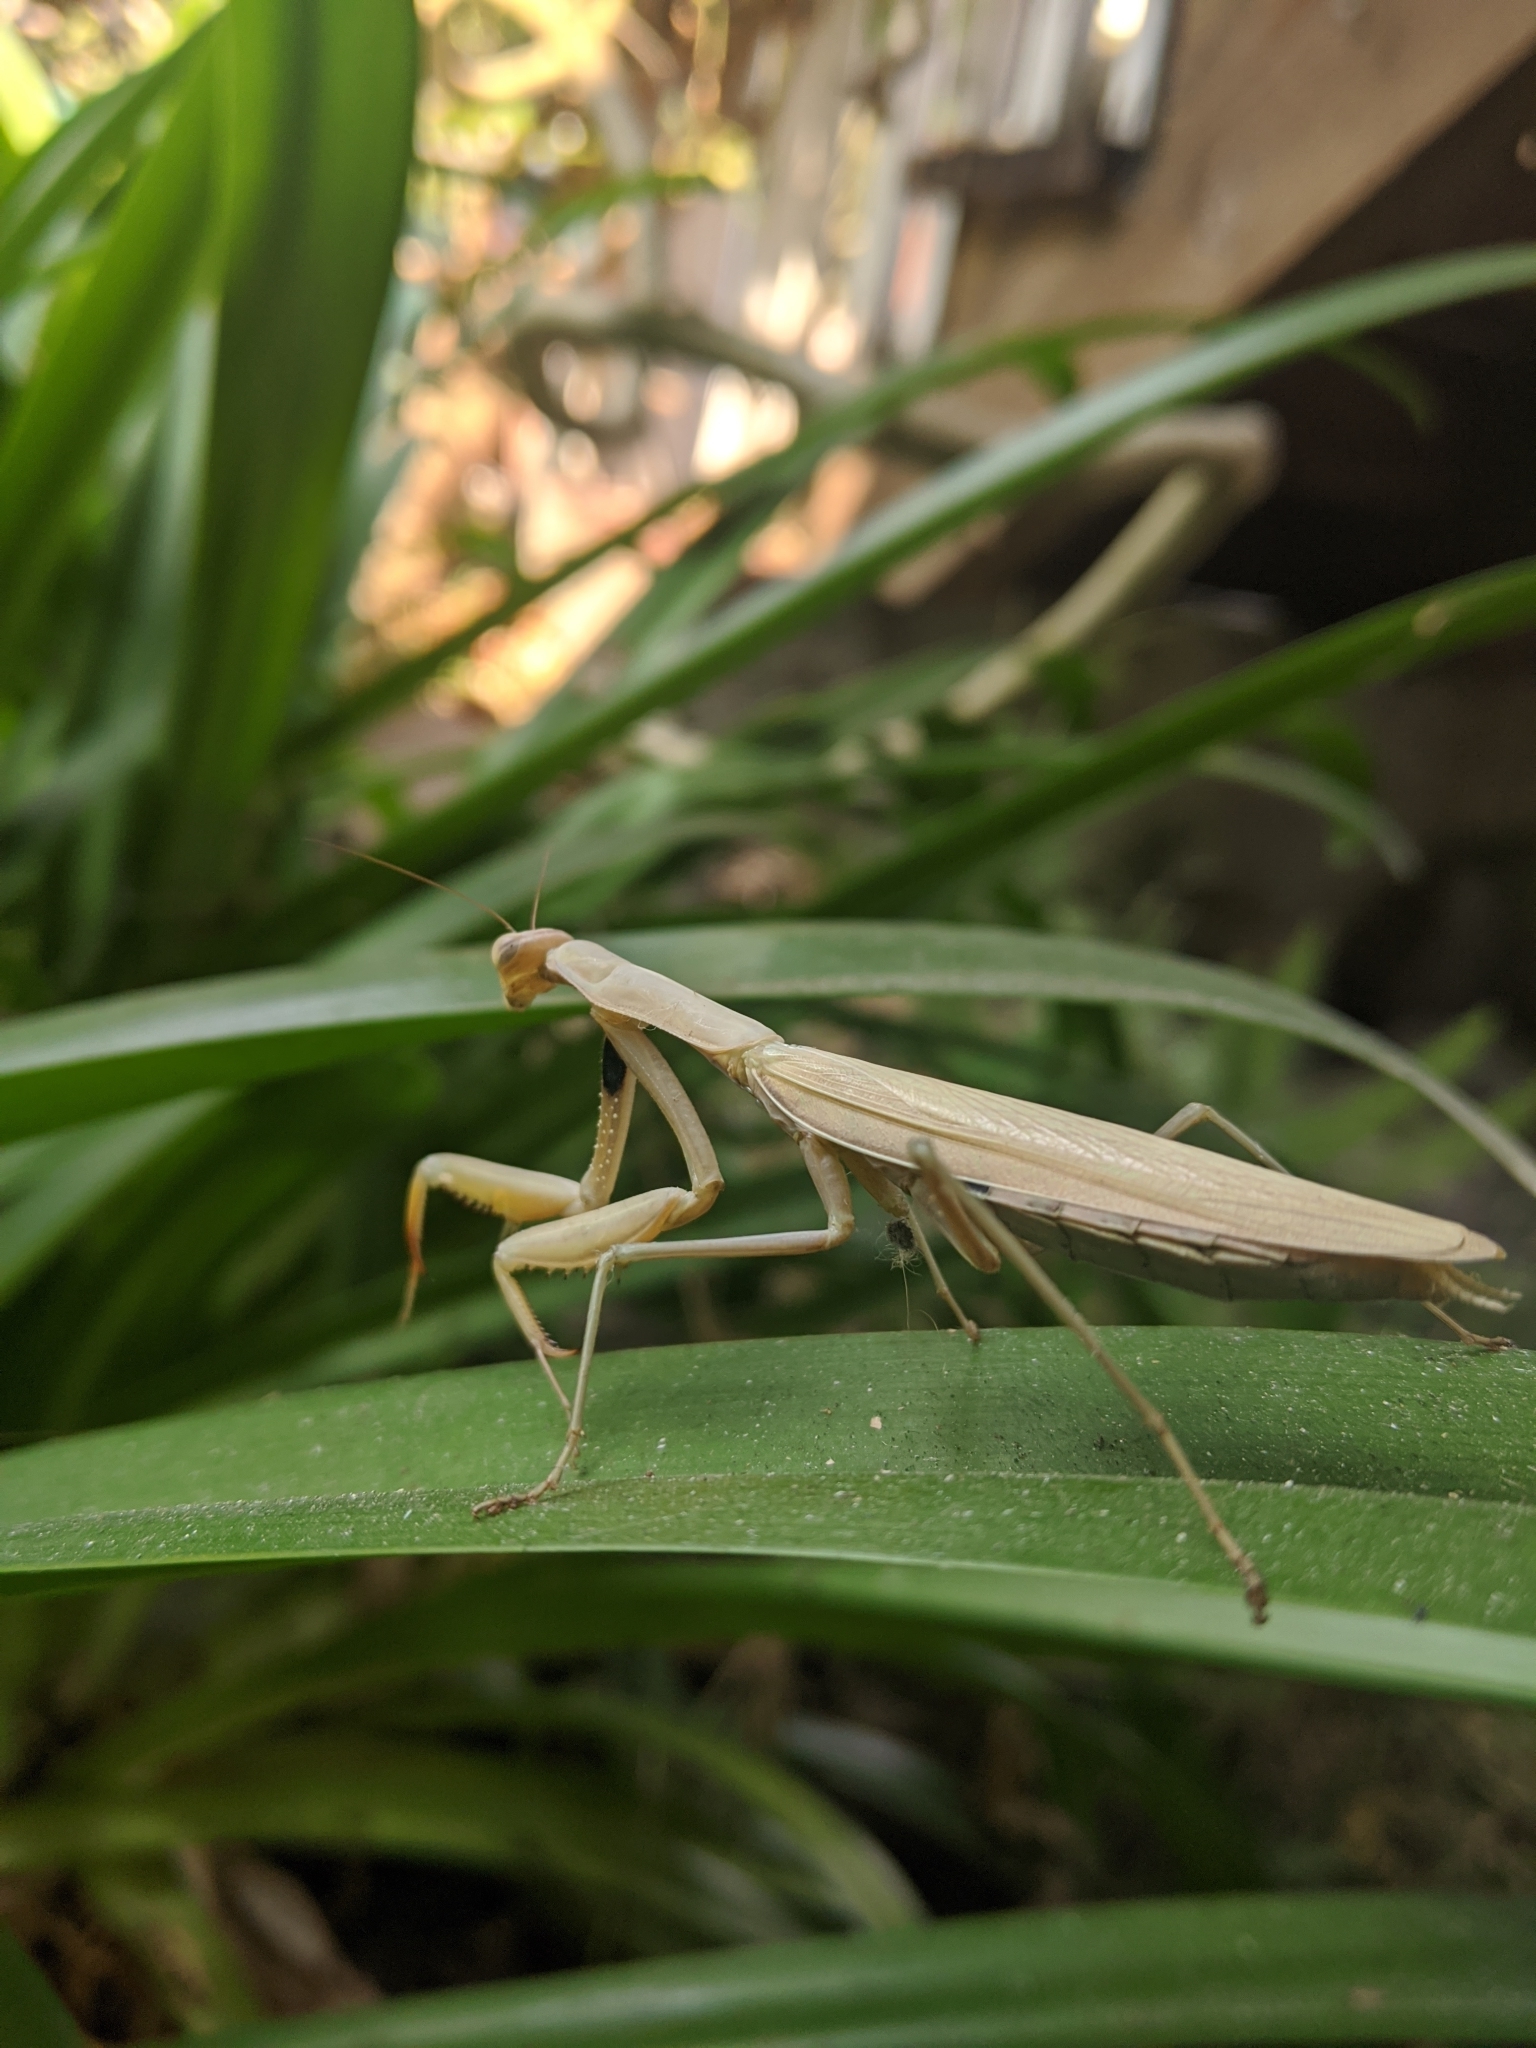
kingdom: Animalia
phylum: Arthropoda
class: Insecta
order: Mantodea
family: Mantidae
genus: Mantis
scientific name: Mantis religiosa
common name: Praying mantis
